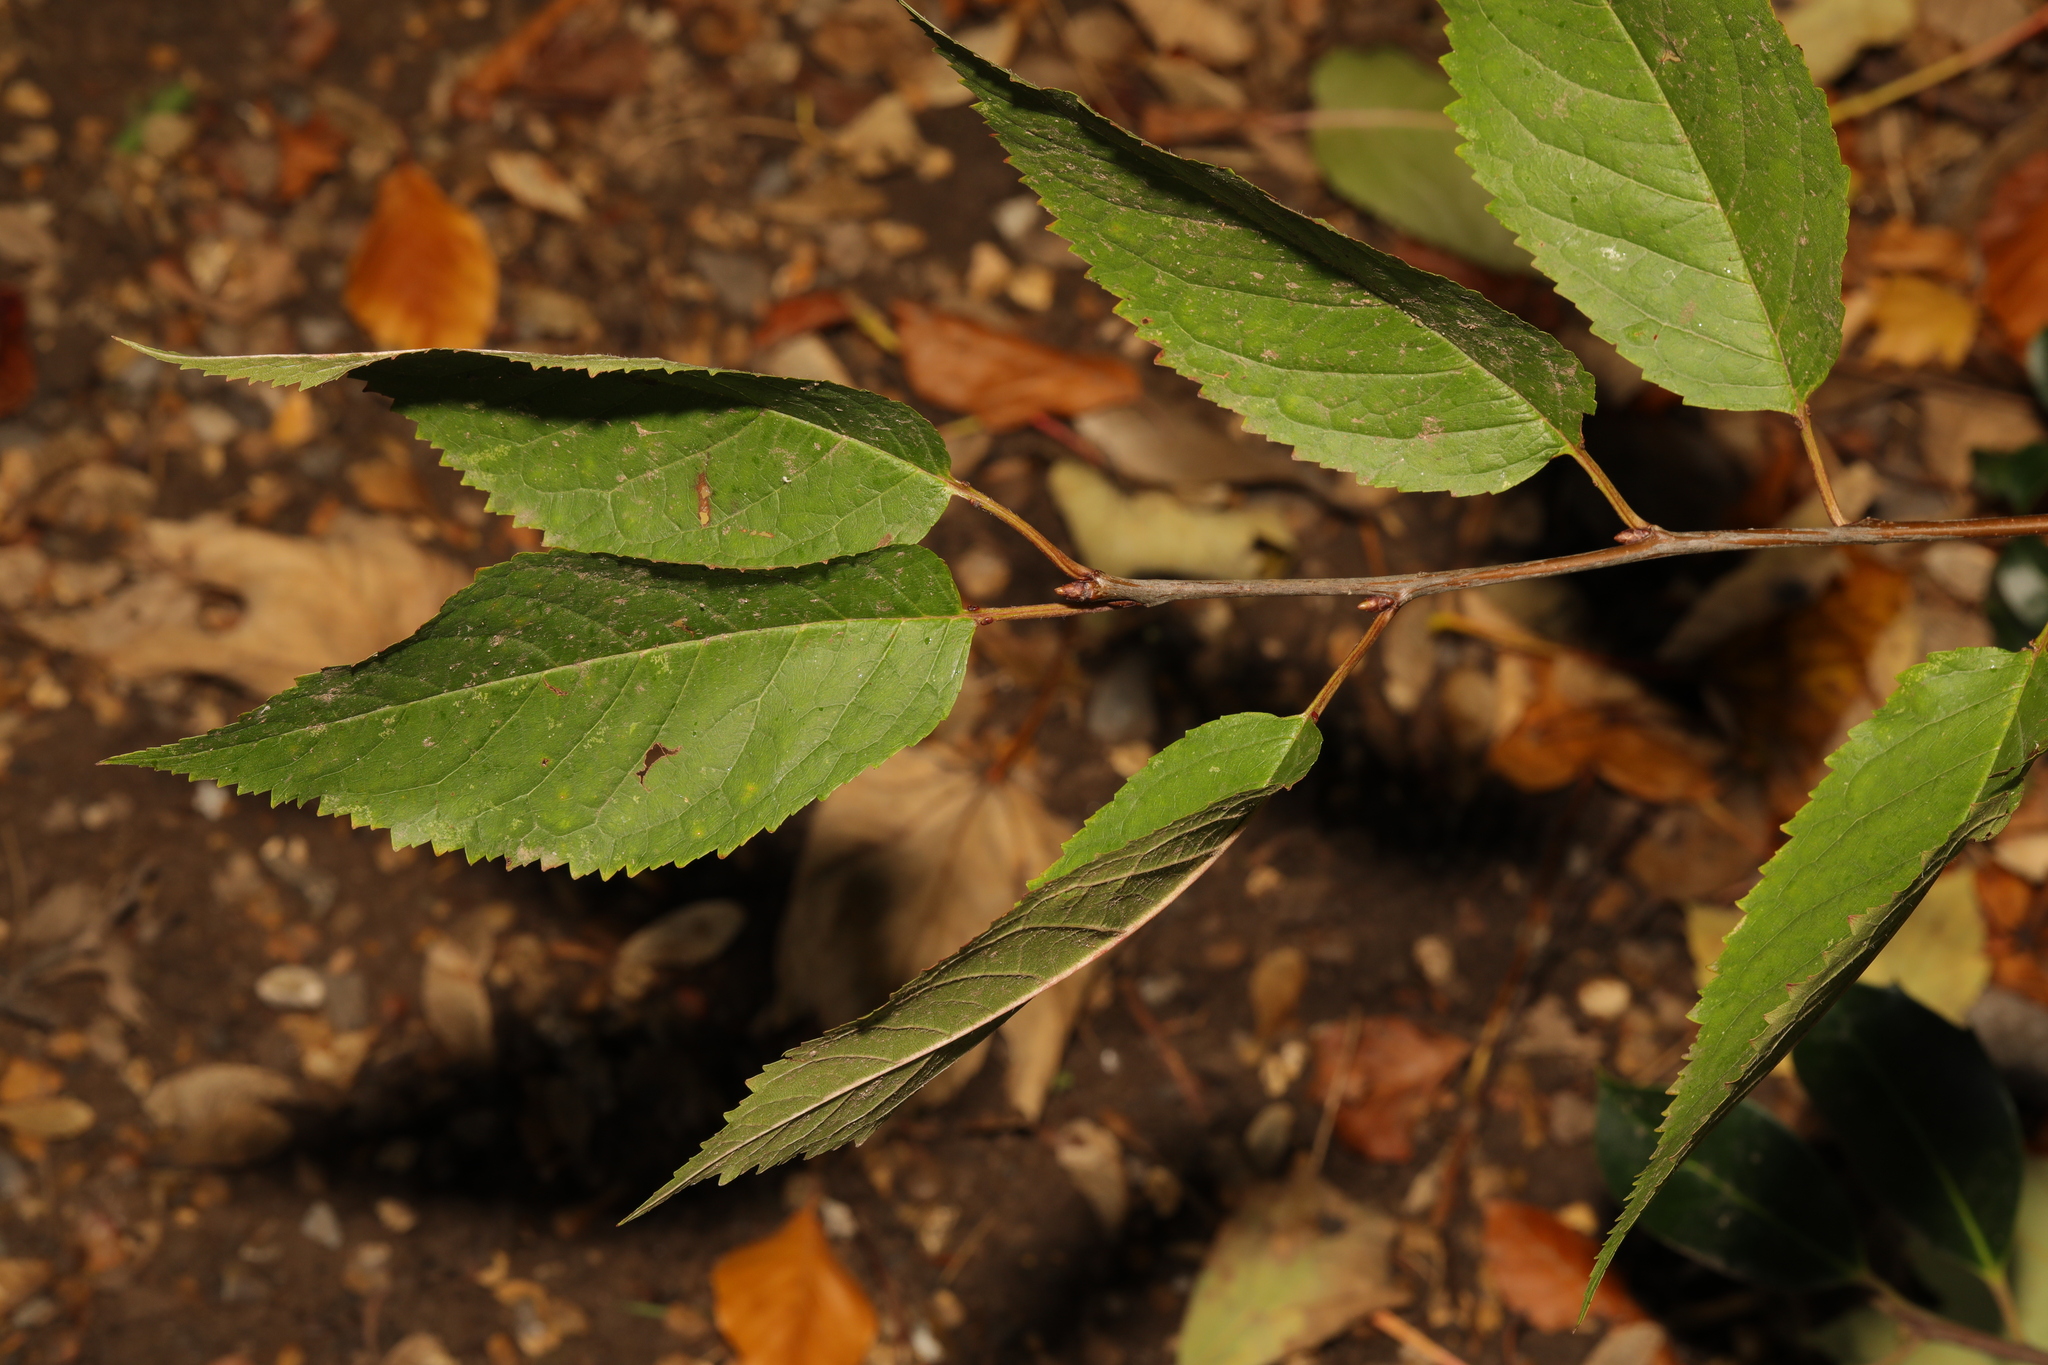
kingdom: Plantae
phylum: Tracheophyta
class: Magnoliopsida
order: Rosales
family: Rosaceae
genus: Prunus
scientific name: Prunus avium
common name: Sweet cherry
